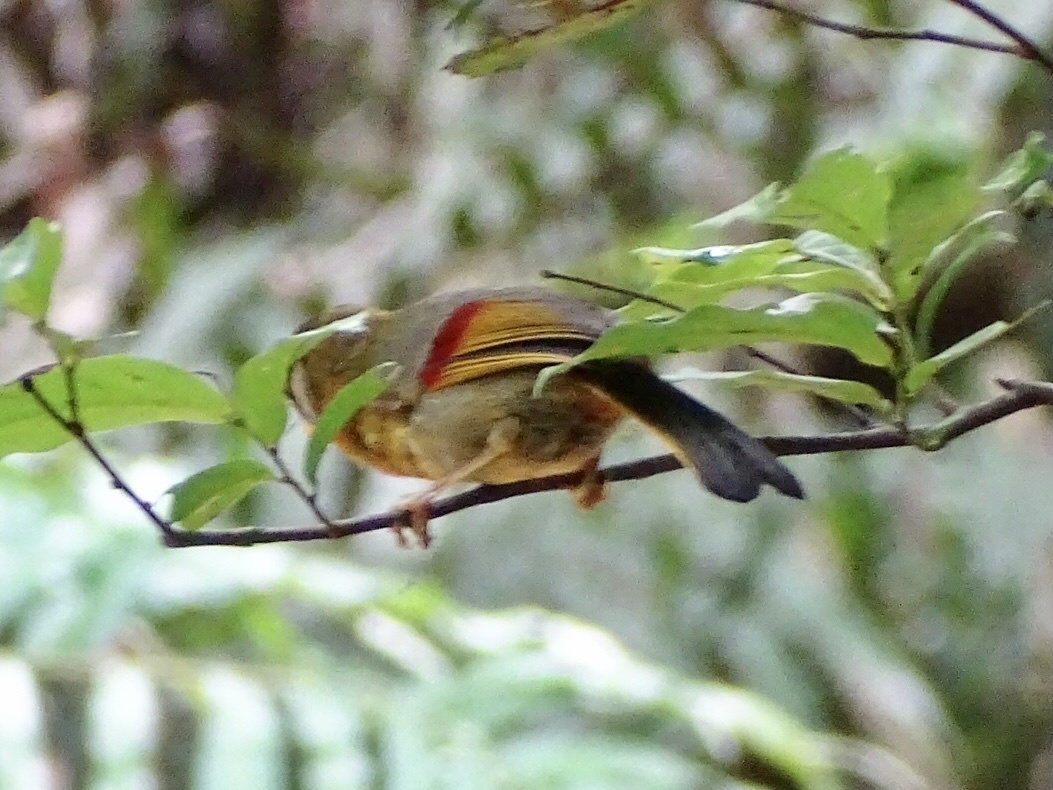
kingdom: Animalia
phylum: Chordata
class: Aves
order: Passeriformes
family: Leiothrichidae
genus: Leiothrix
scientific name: Leiothrix argentauris
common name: Silver-eared mesia
